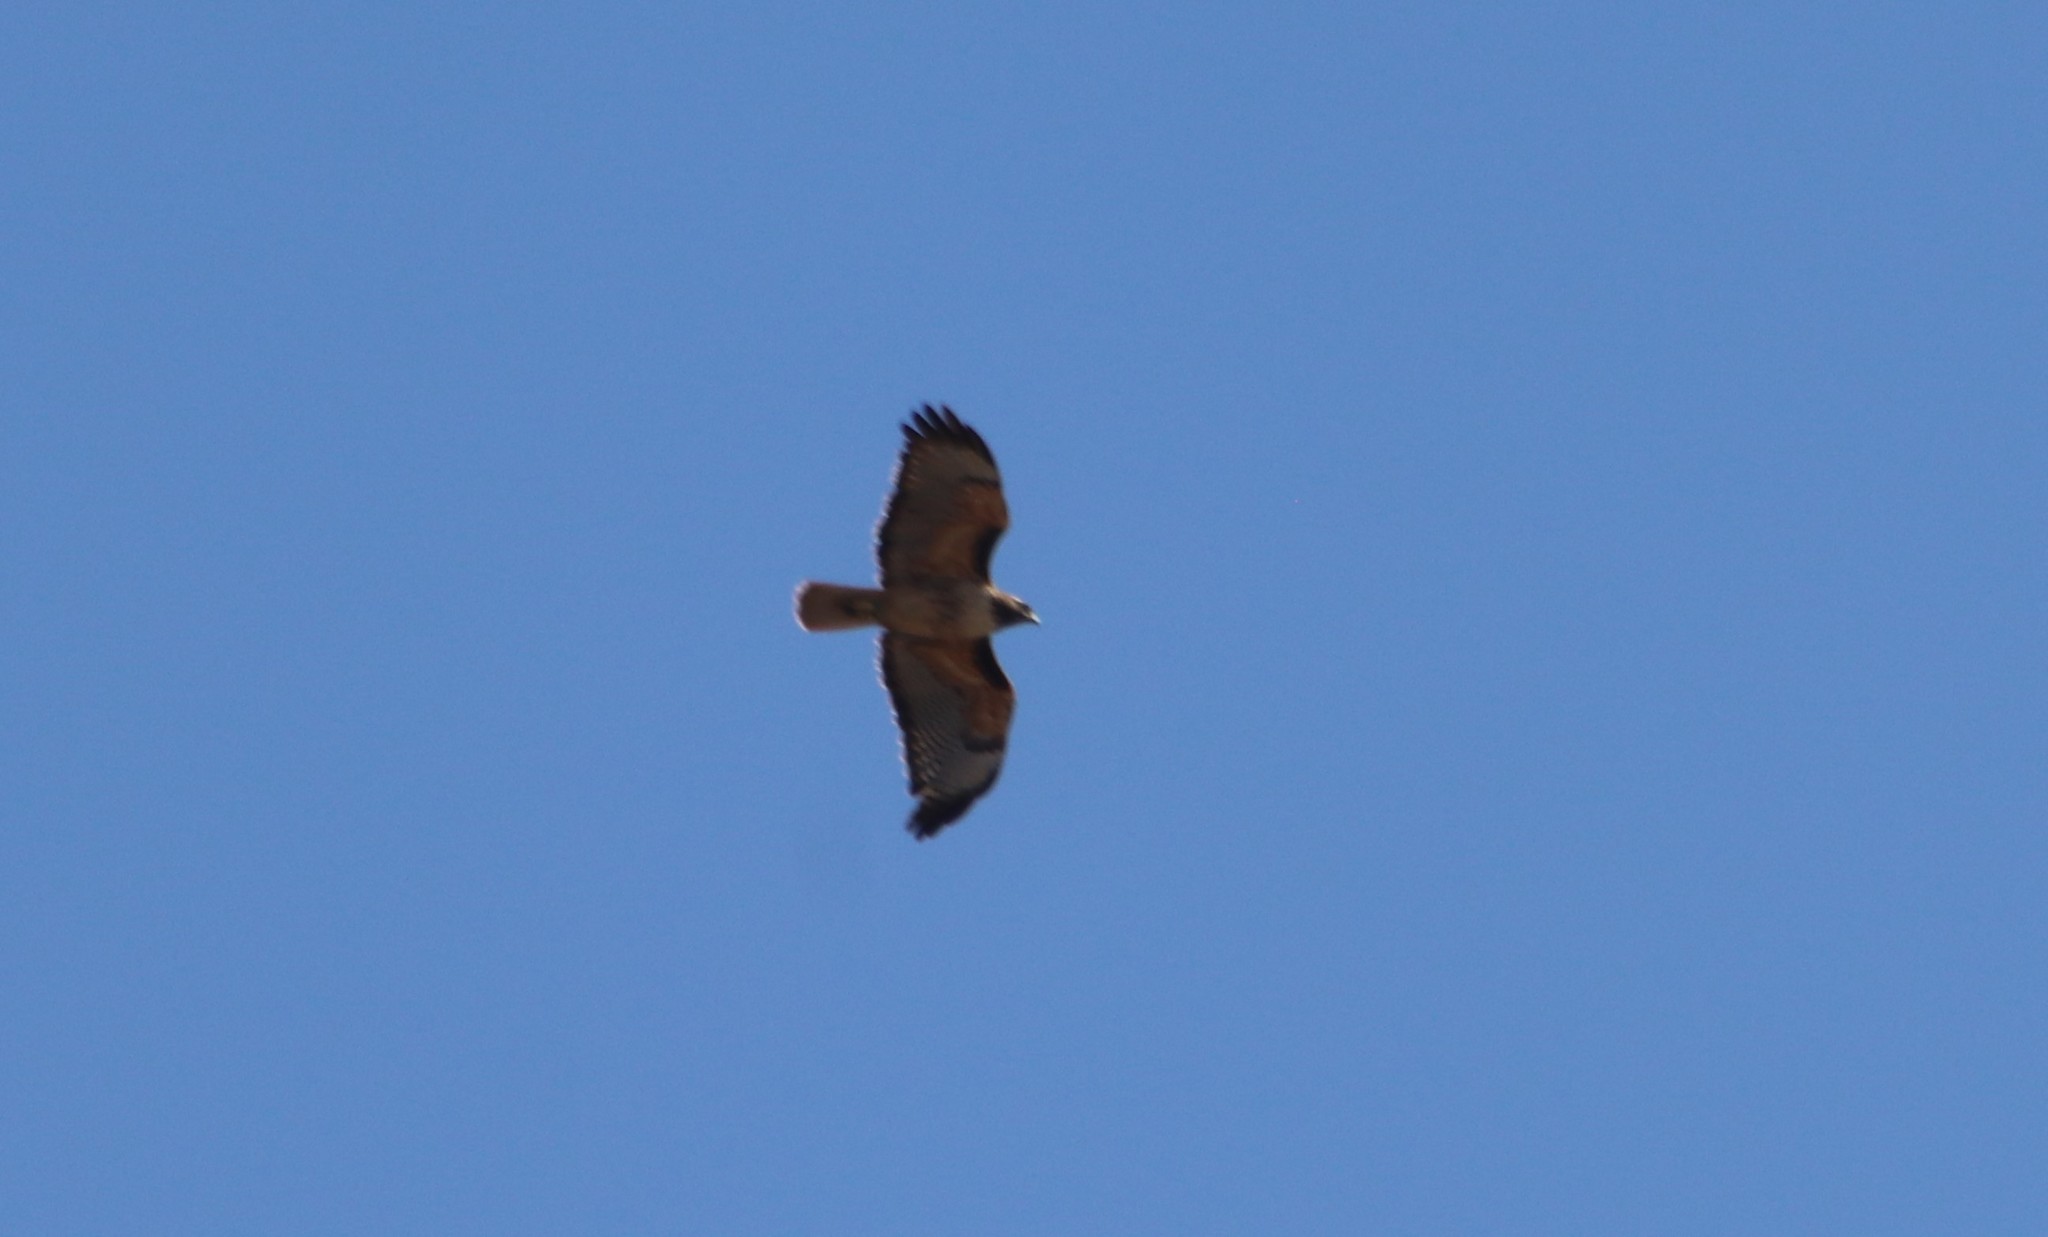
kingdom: Animalia
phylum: Chordata
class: Aves
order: Accipitriformes
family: Accipitridae
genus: Buteo
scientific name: Buteo jamaicensis
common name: Red-tailed hawk
